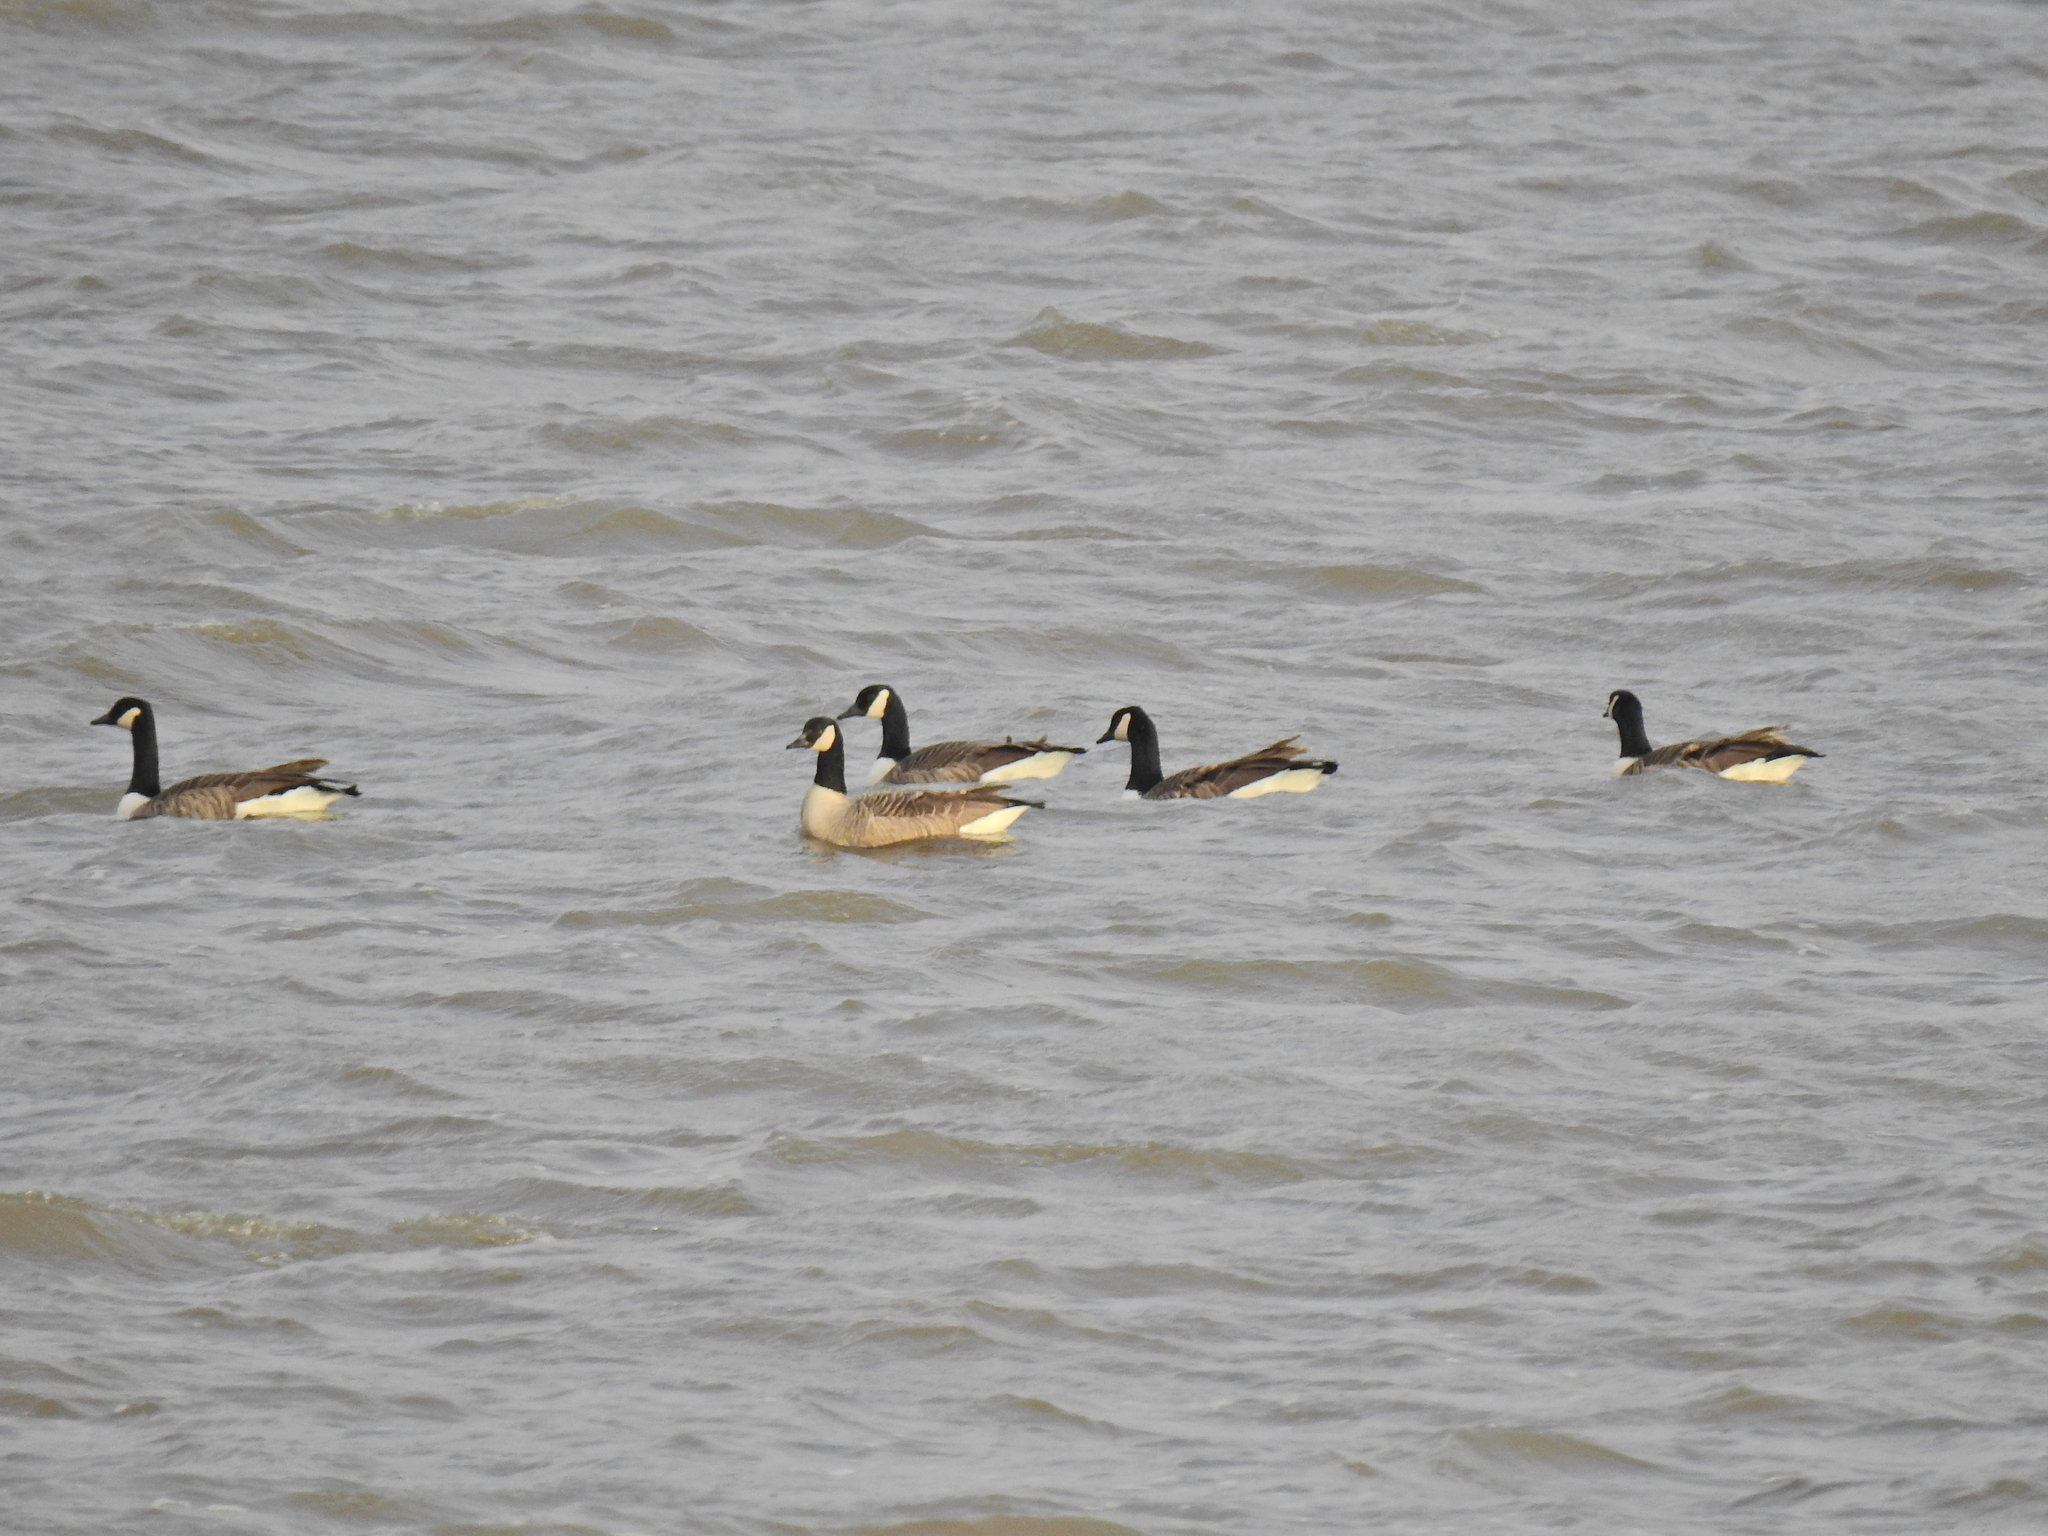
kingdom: Animalia
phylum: Chordata
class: Aves
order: Anseriformes
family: Anatidae
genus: Branta
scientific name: Branta canadensis
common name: Canada goose
